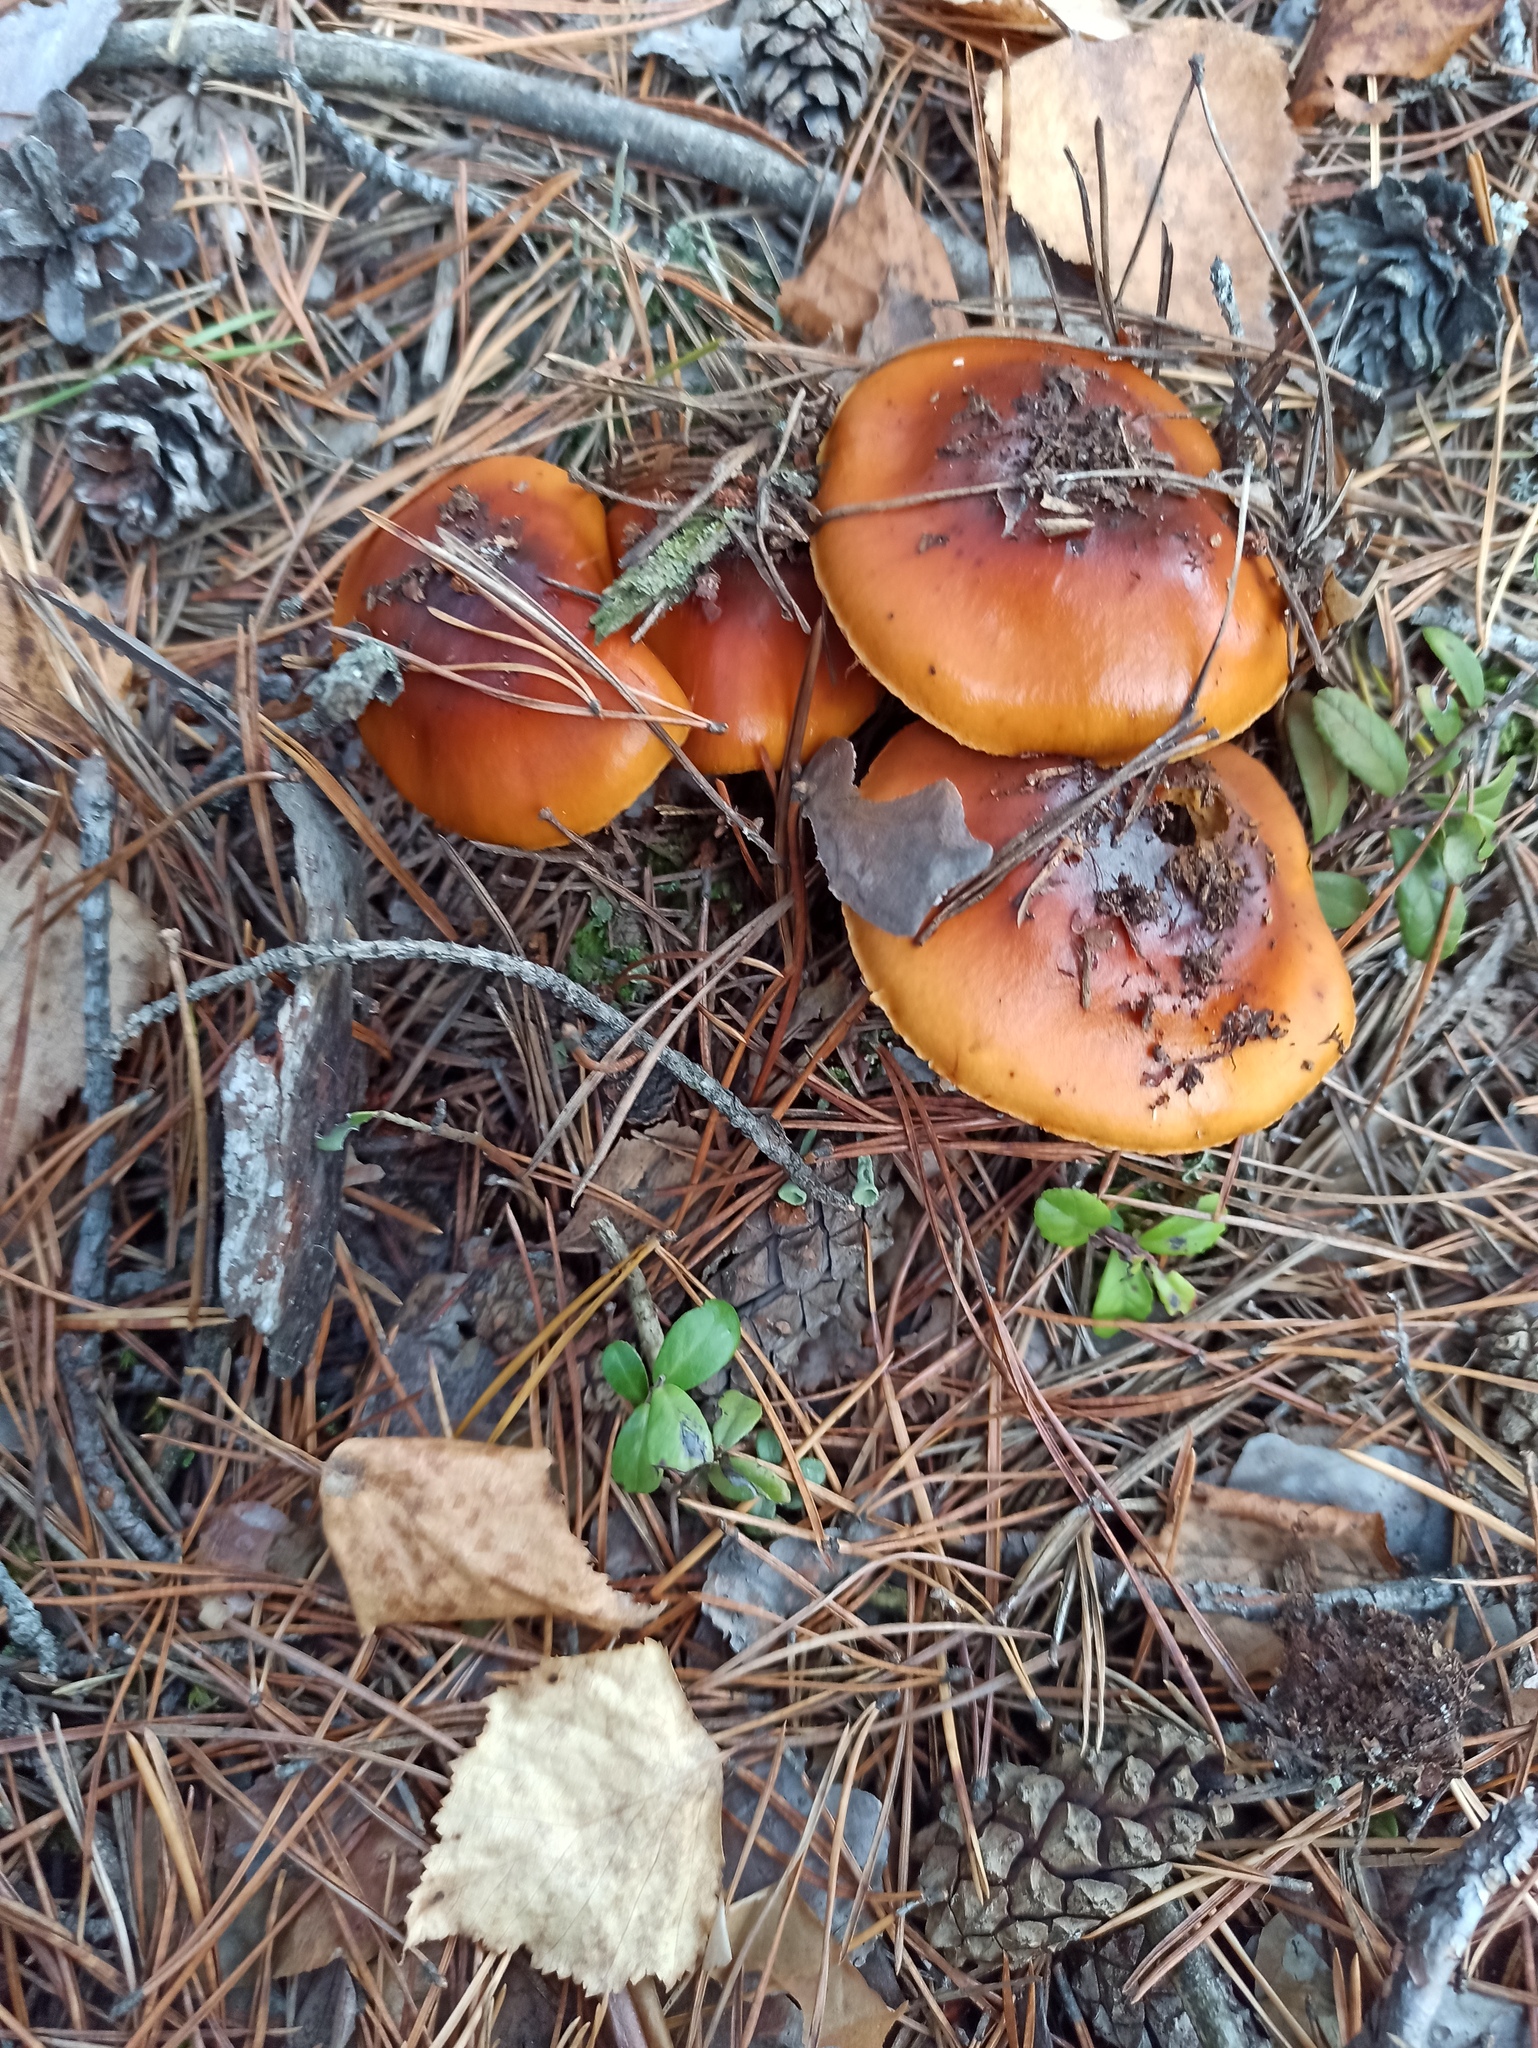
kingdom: Fungi
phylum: Basidiomycota
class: Agaricomycetes
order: Agaricales
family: Cortinariaceae
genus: Cortinarius
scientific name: Cortinarius mucosus
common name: Orange webcap
